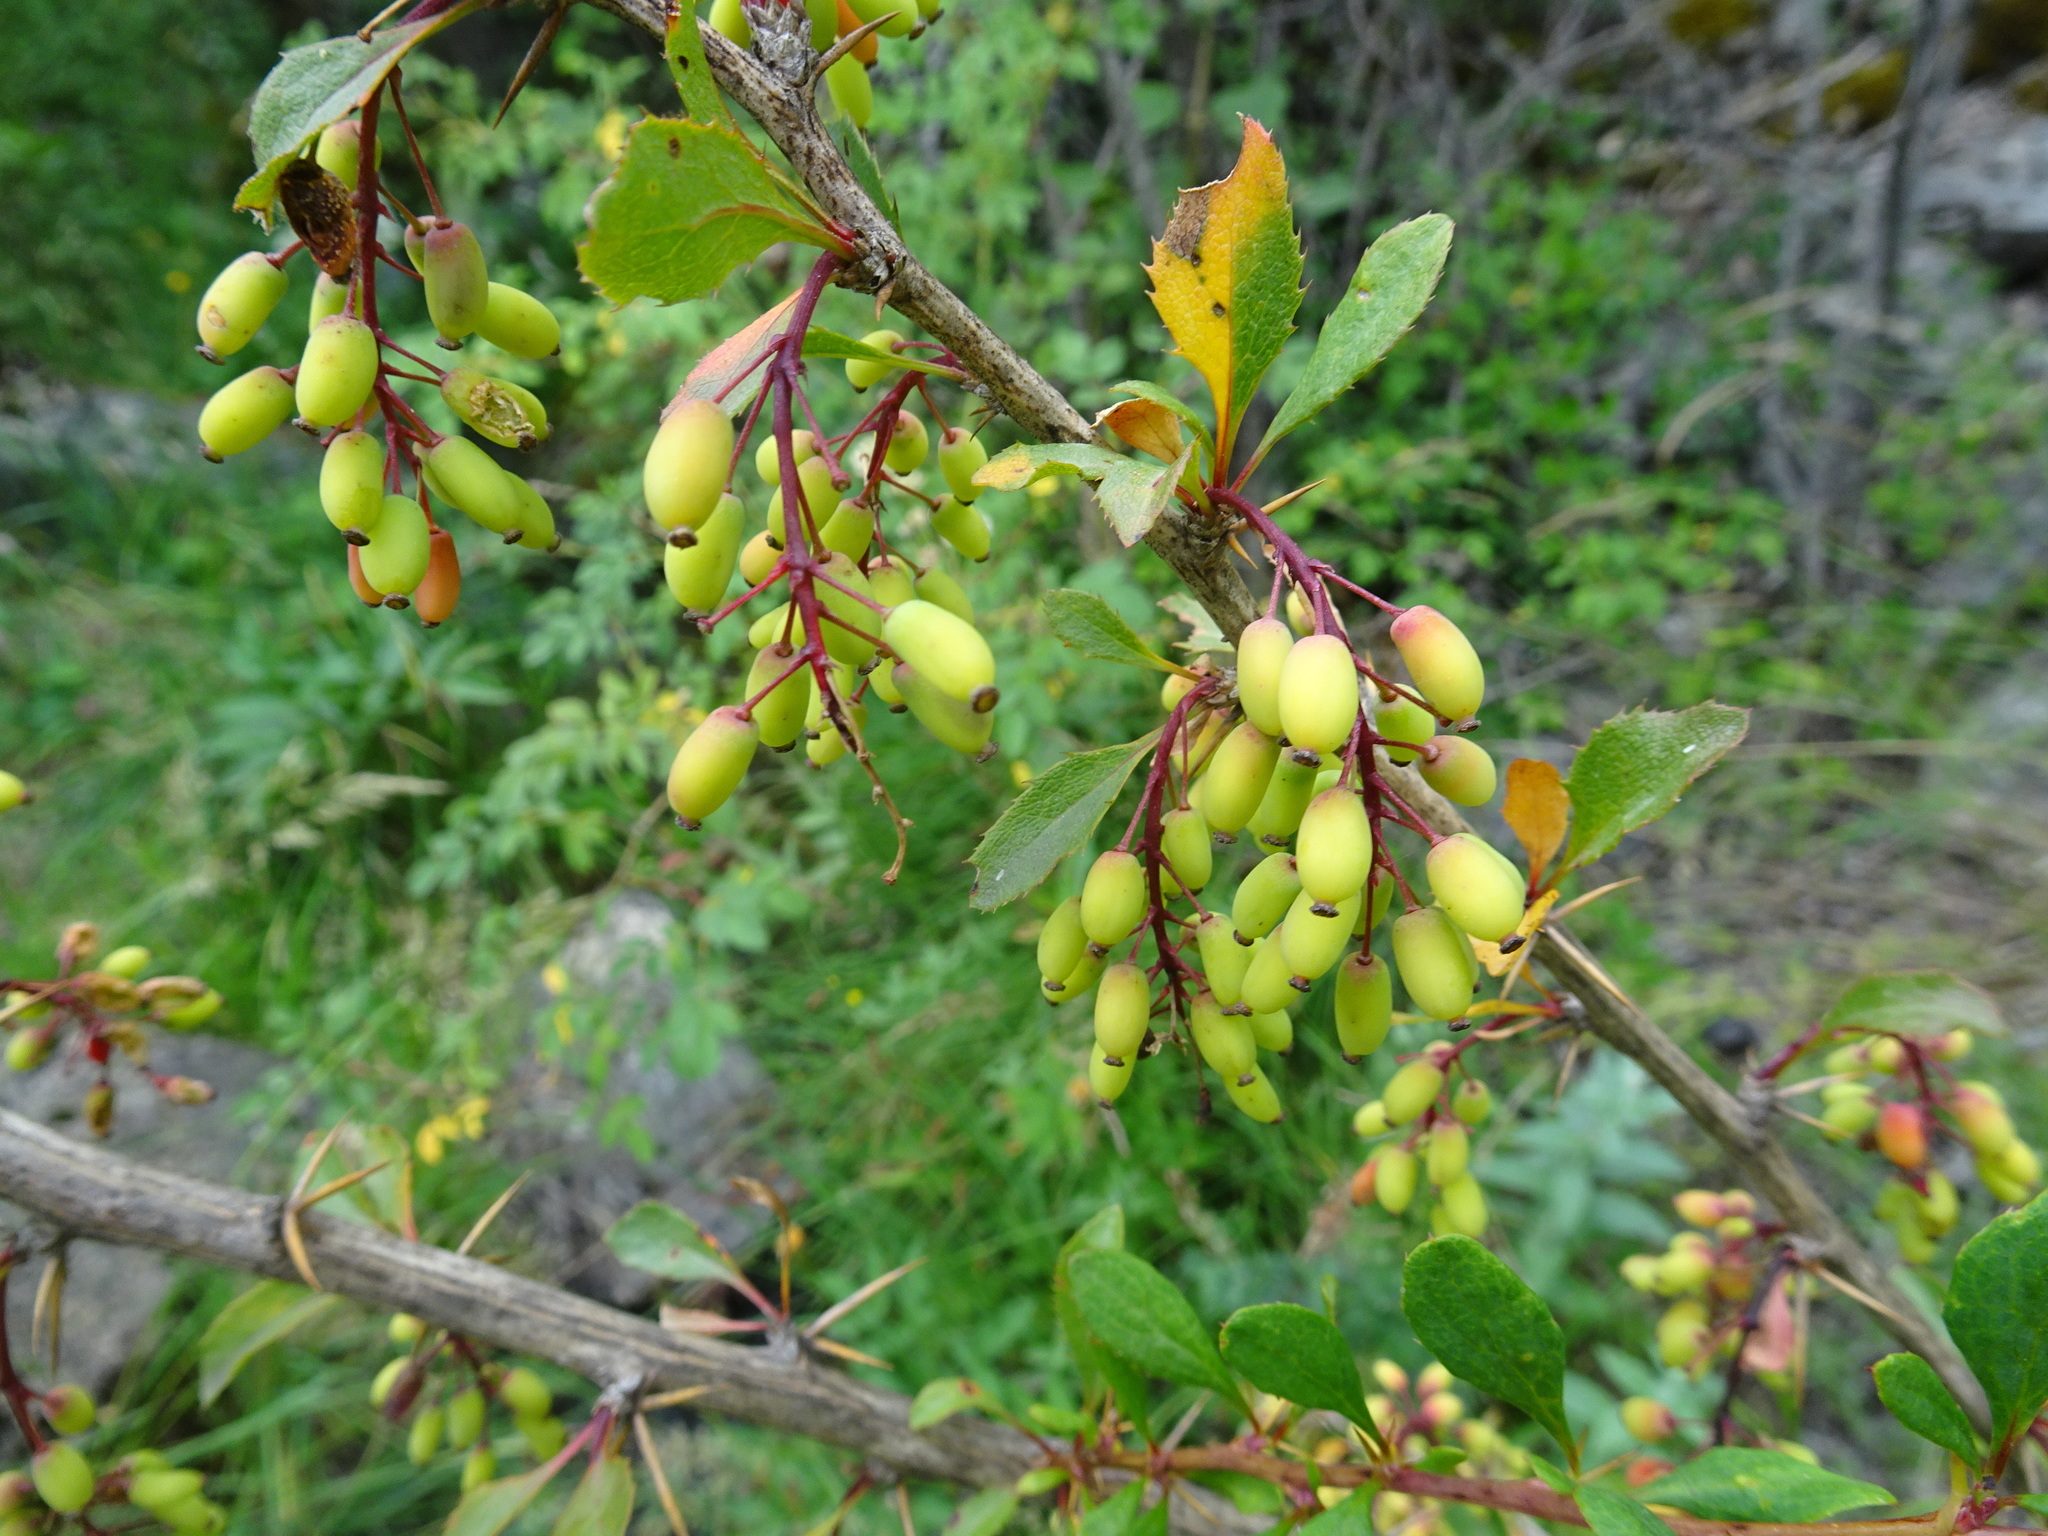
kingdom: Plantae
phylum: Tracheophyta
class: Magnoliopsida
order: Ranunculales
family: Berberidaceae
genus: Berberis
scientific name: Berberis vulgaris
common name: Barberry
